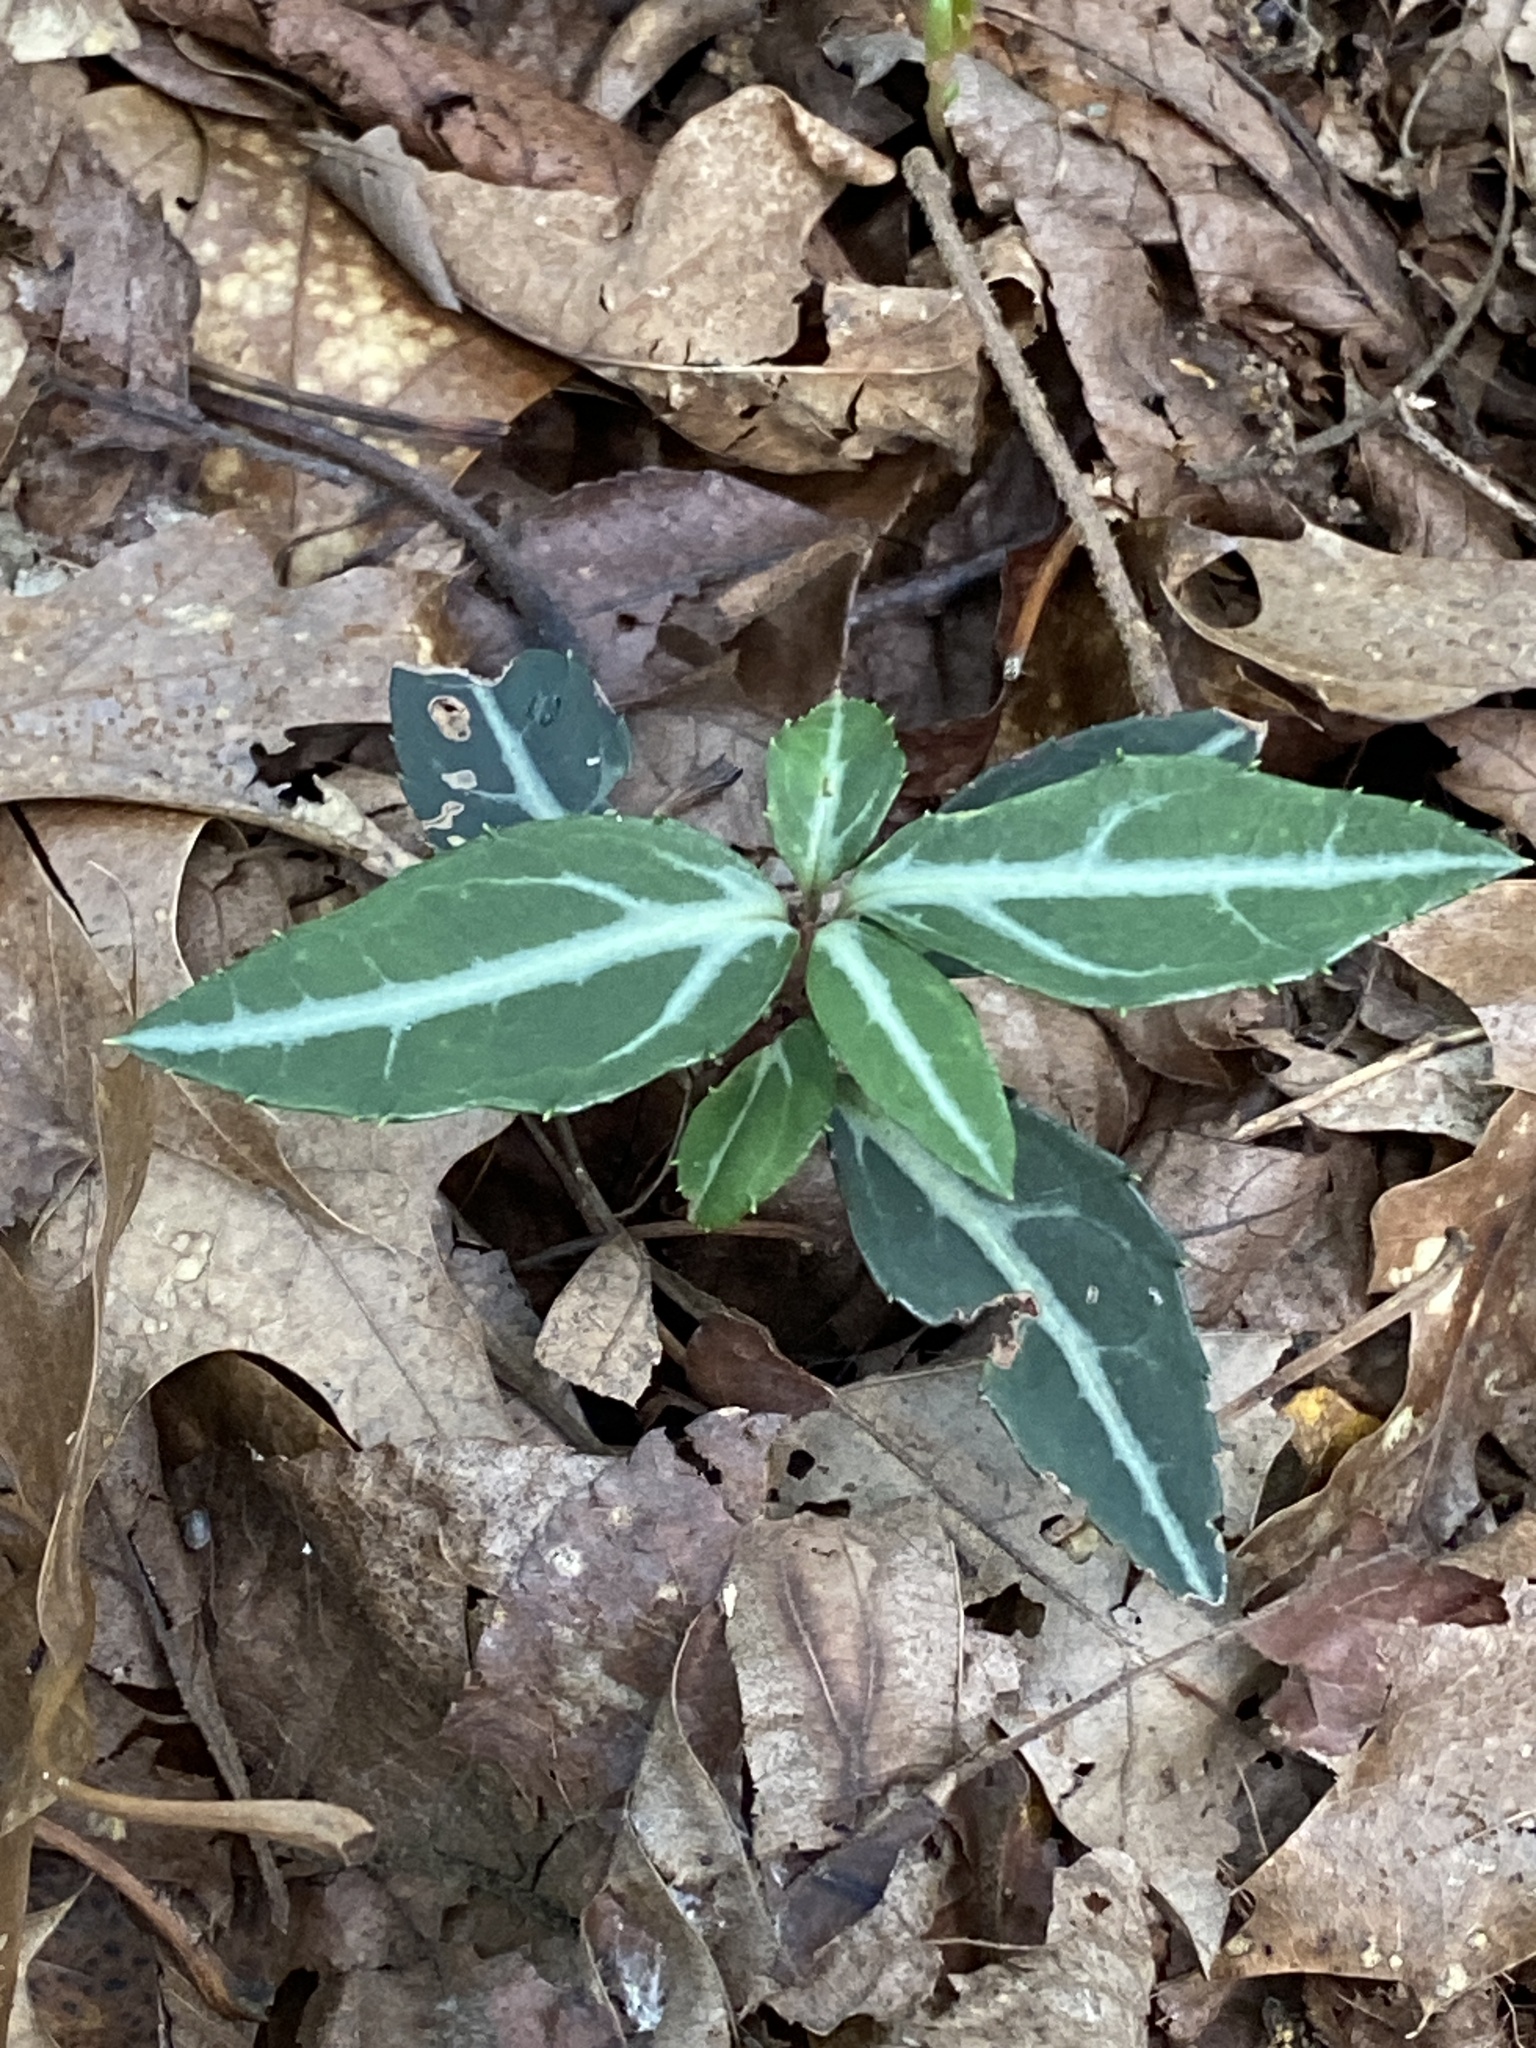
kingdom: Plantae
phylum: Tracheophyta
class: Magnoliopsida
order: Ericales
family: Ericaceae
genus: Chimaphila
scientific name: Chimaphila maculata
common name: Spotted pipsissewa
